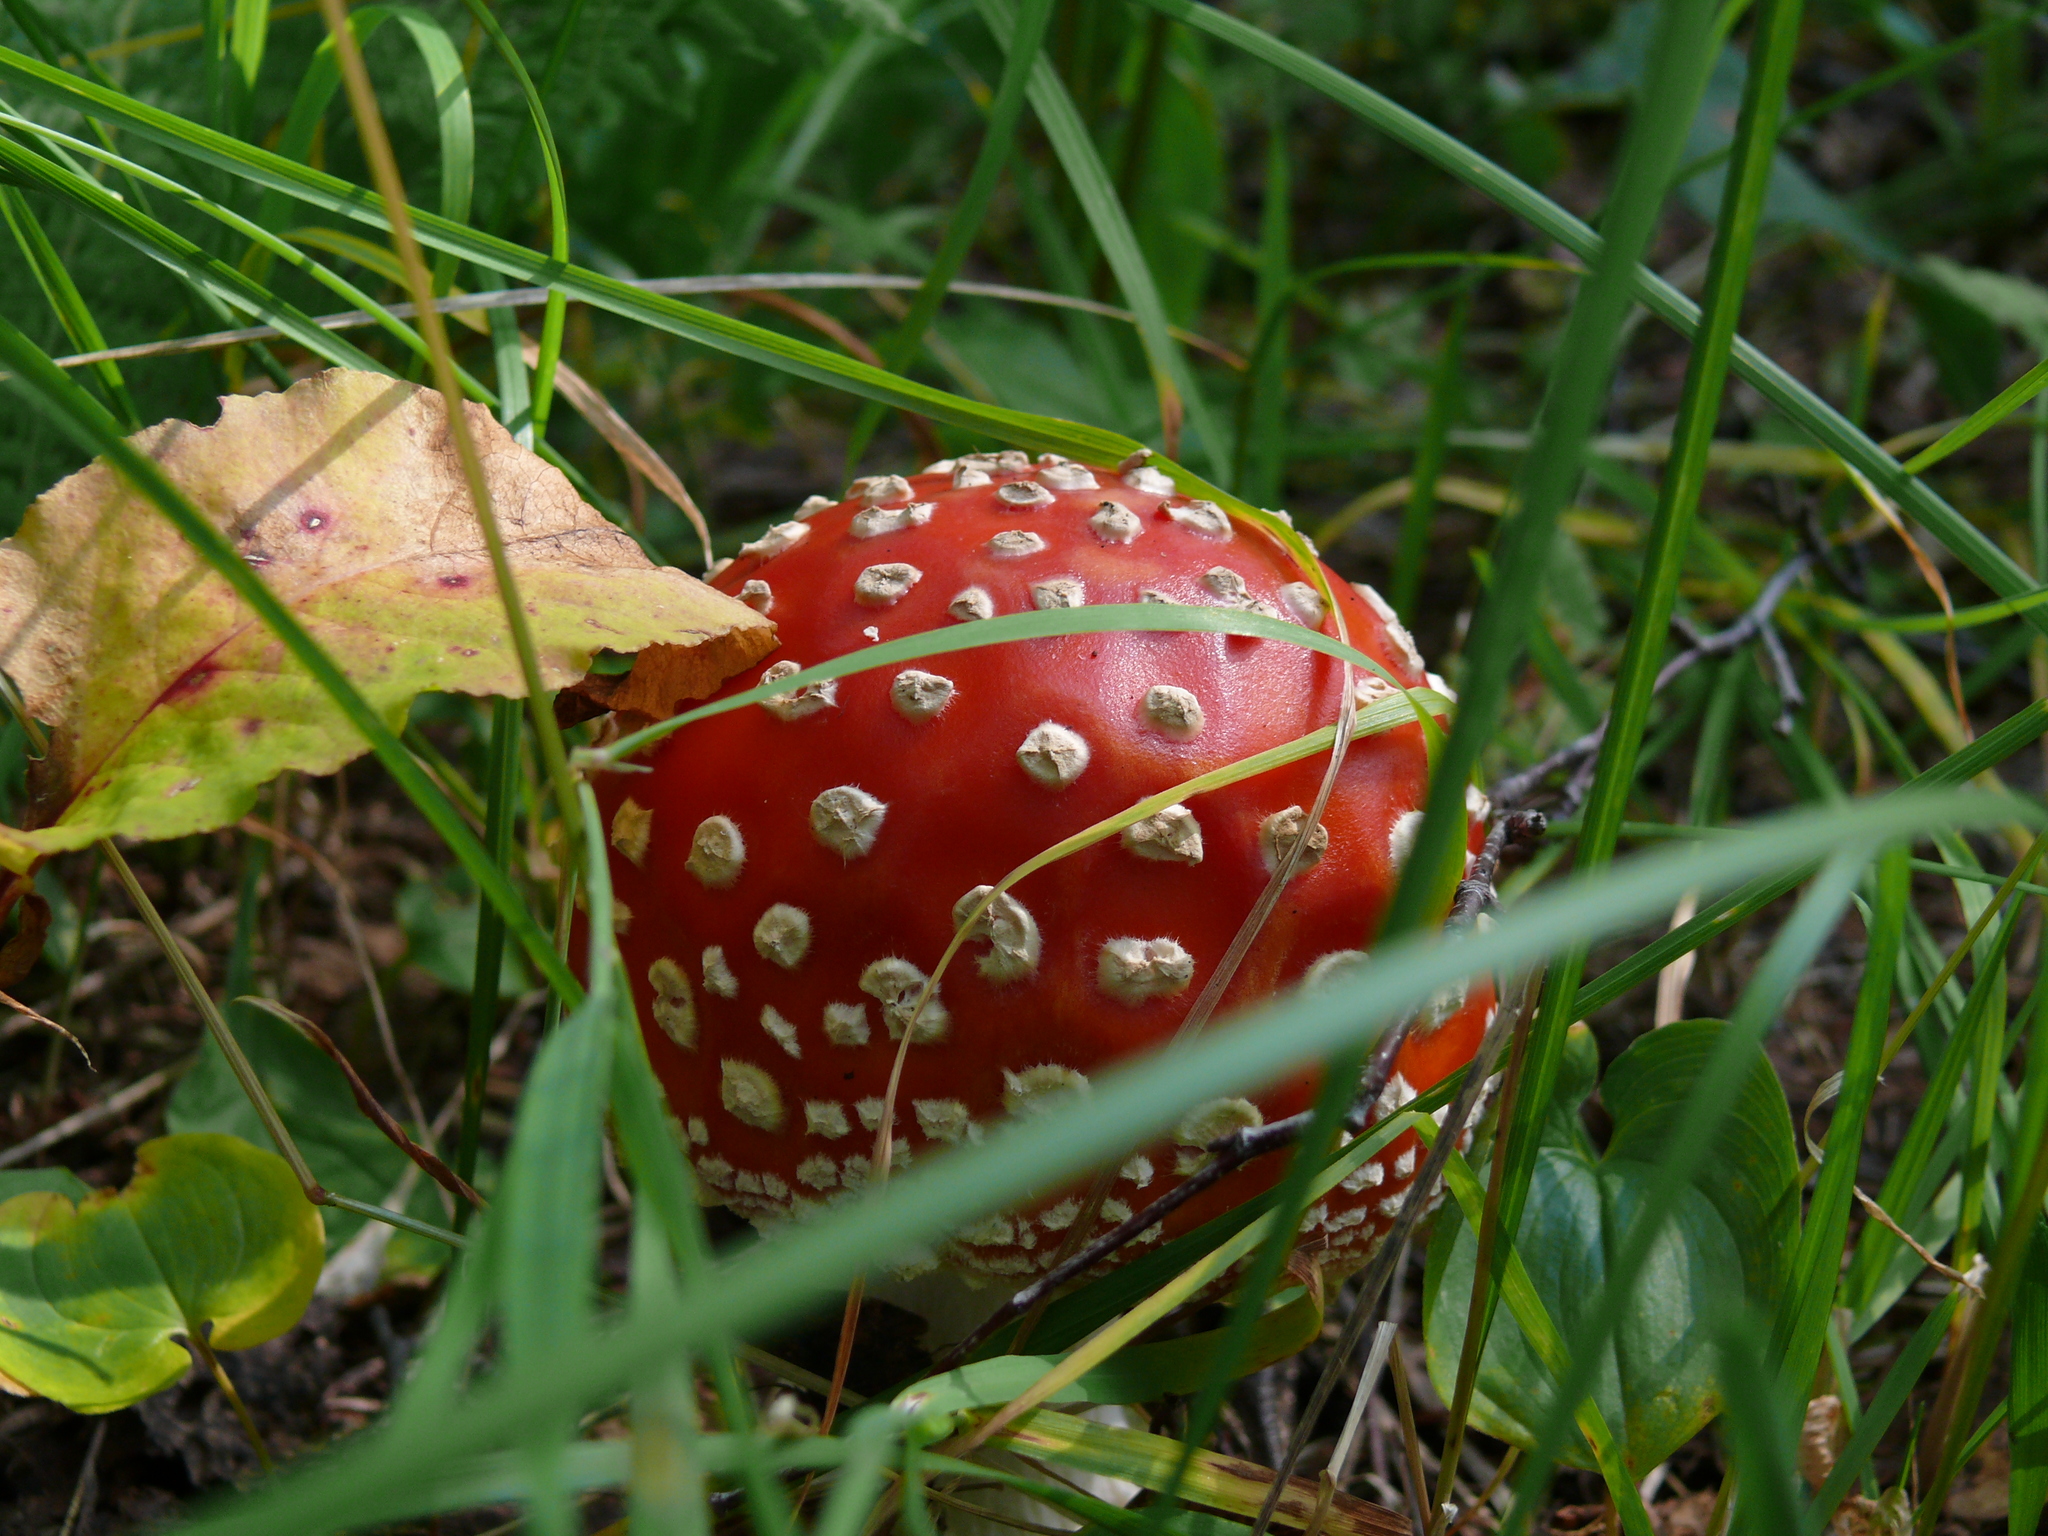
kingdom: Fungi
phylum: Basidiomycota
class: Agaricomycetes
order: Agaricales
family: Amanitaceae
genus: Amanita
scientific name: Amanita muscaria
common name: Fly agaric
